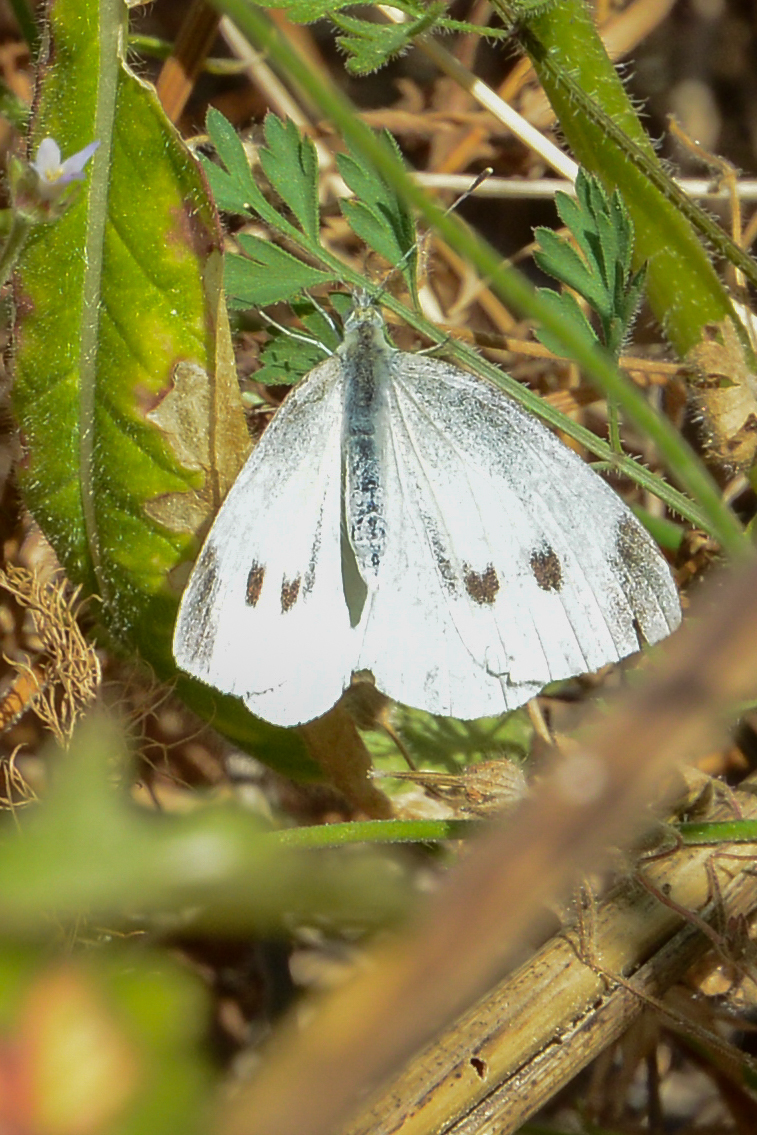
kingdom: Animalia
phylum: Arthropoda
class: Insecta
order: Lepidoptera
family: Pieridae
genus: Pieris
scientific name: Pieris rapae
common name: Small white
